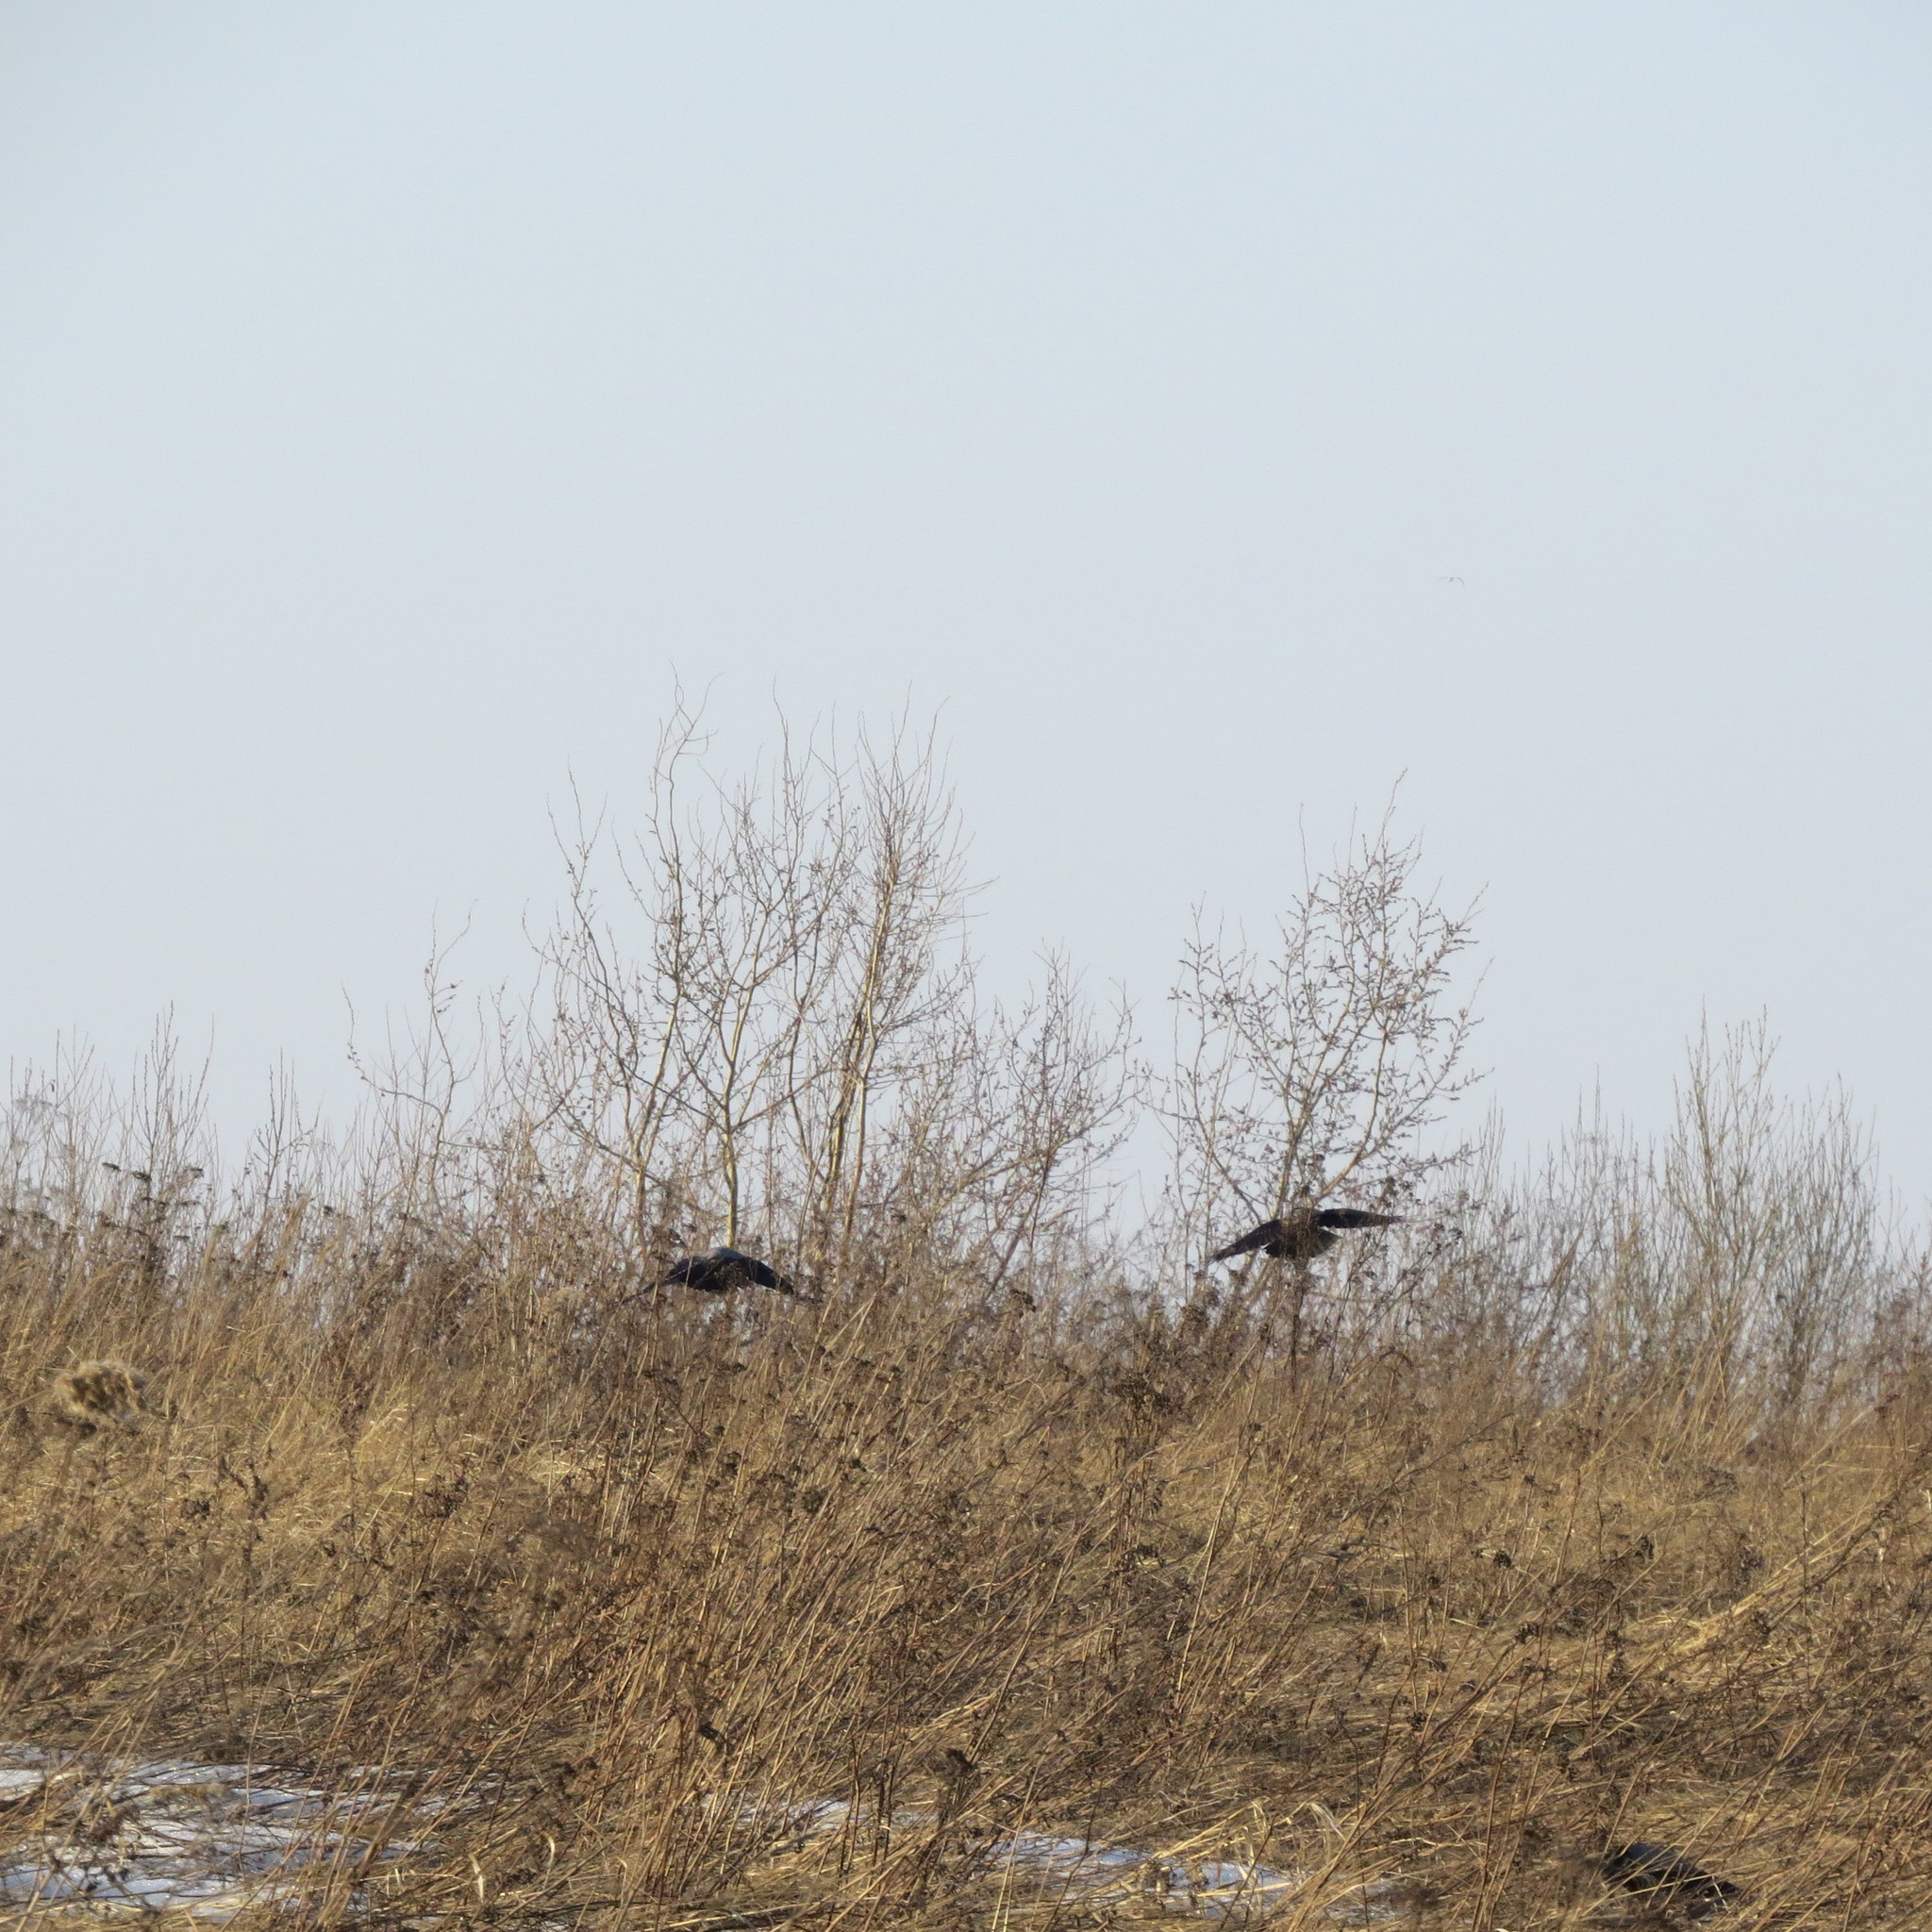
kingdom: Animalia
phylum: Chordata
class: Aves
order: Passeriformes
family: Corvidae
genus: Corvus
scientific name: Corvus cornix
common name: Hooded crow
